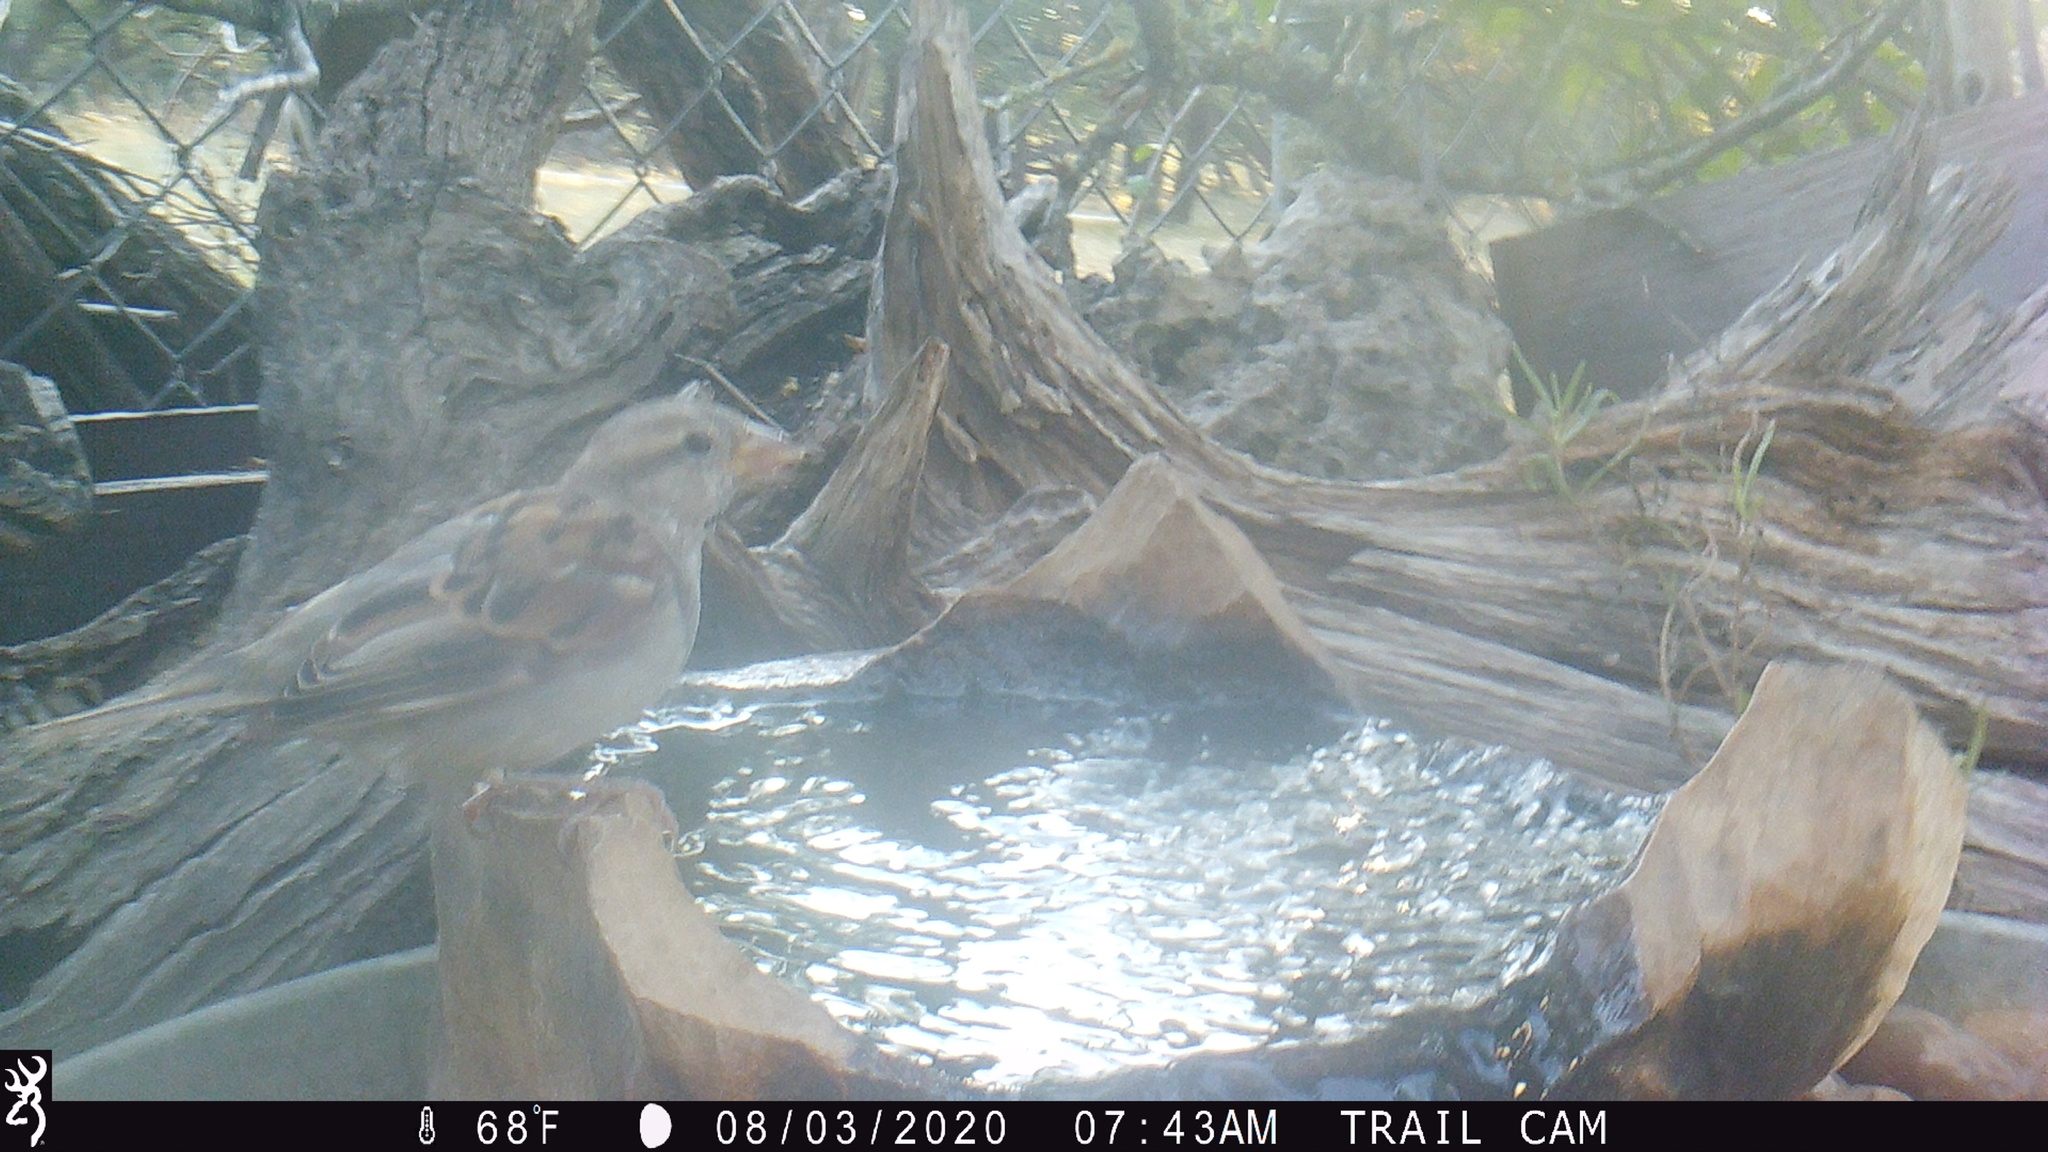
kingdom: Animalia
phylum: Chordata
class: Aves
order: Passeriformes
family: Passeridae
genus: Passer
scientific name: Passer domesticus
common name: House sparrow
